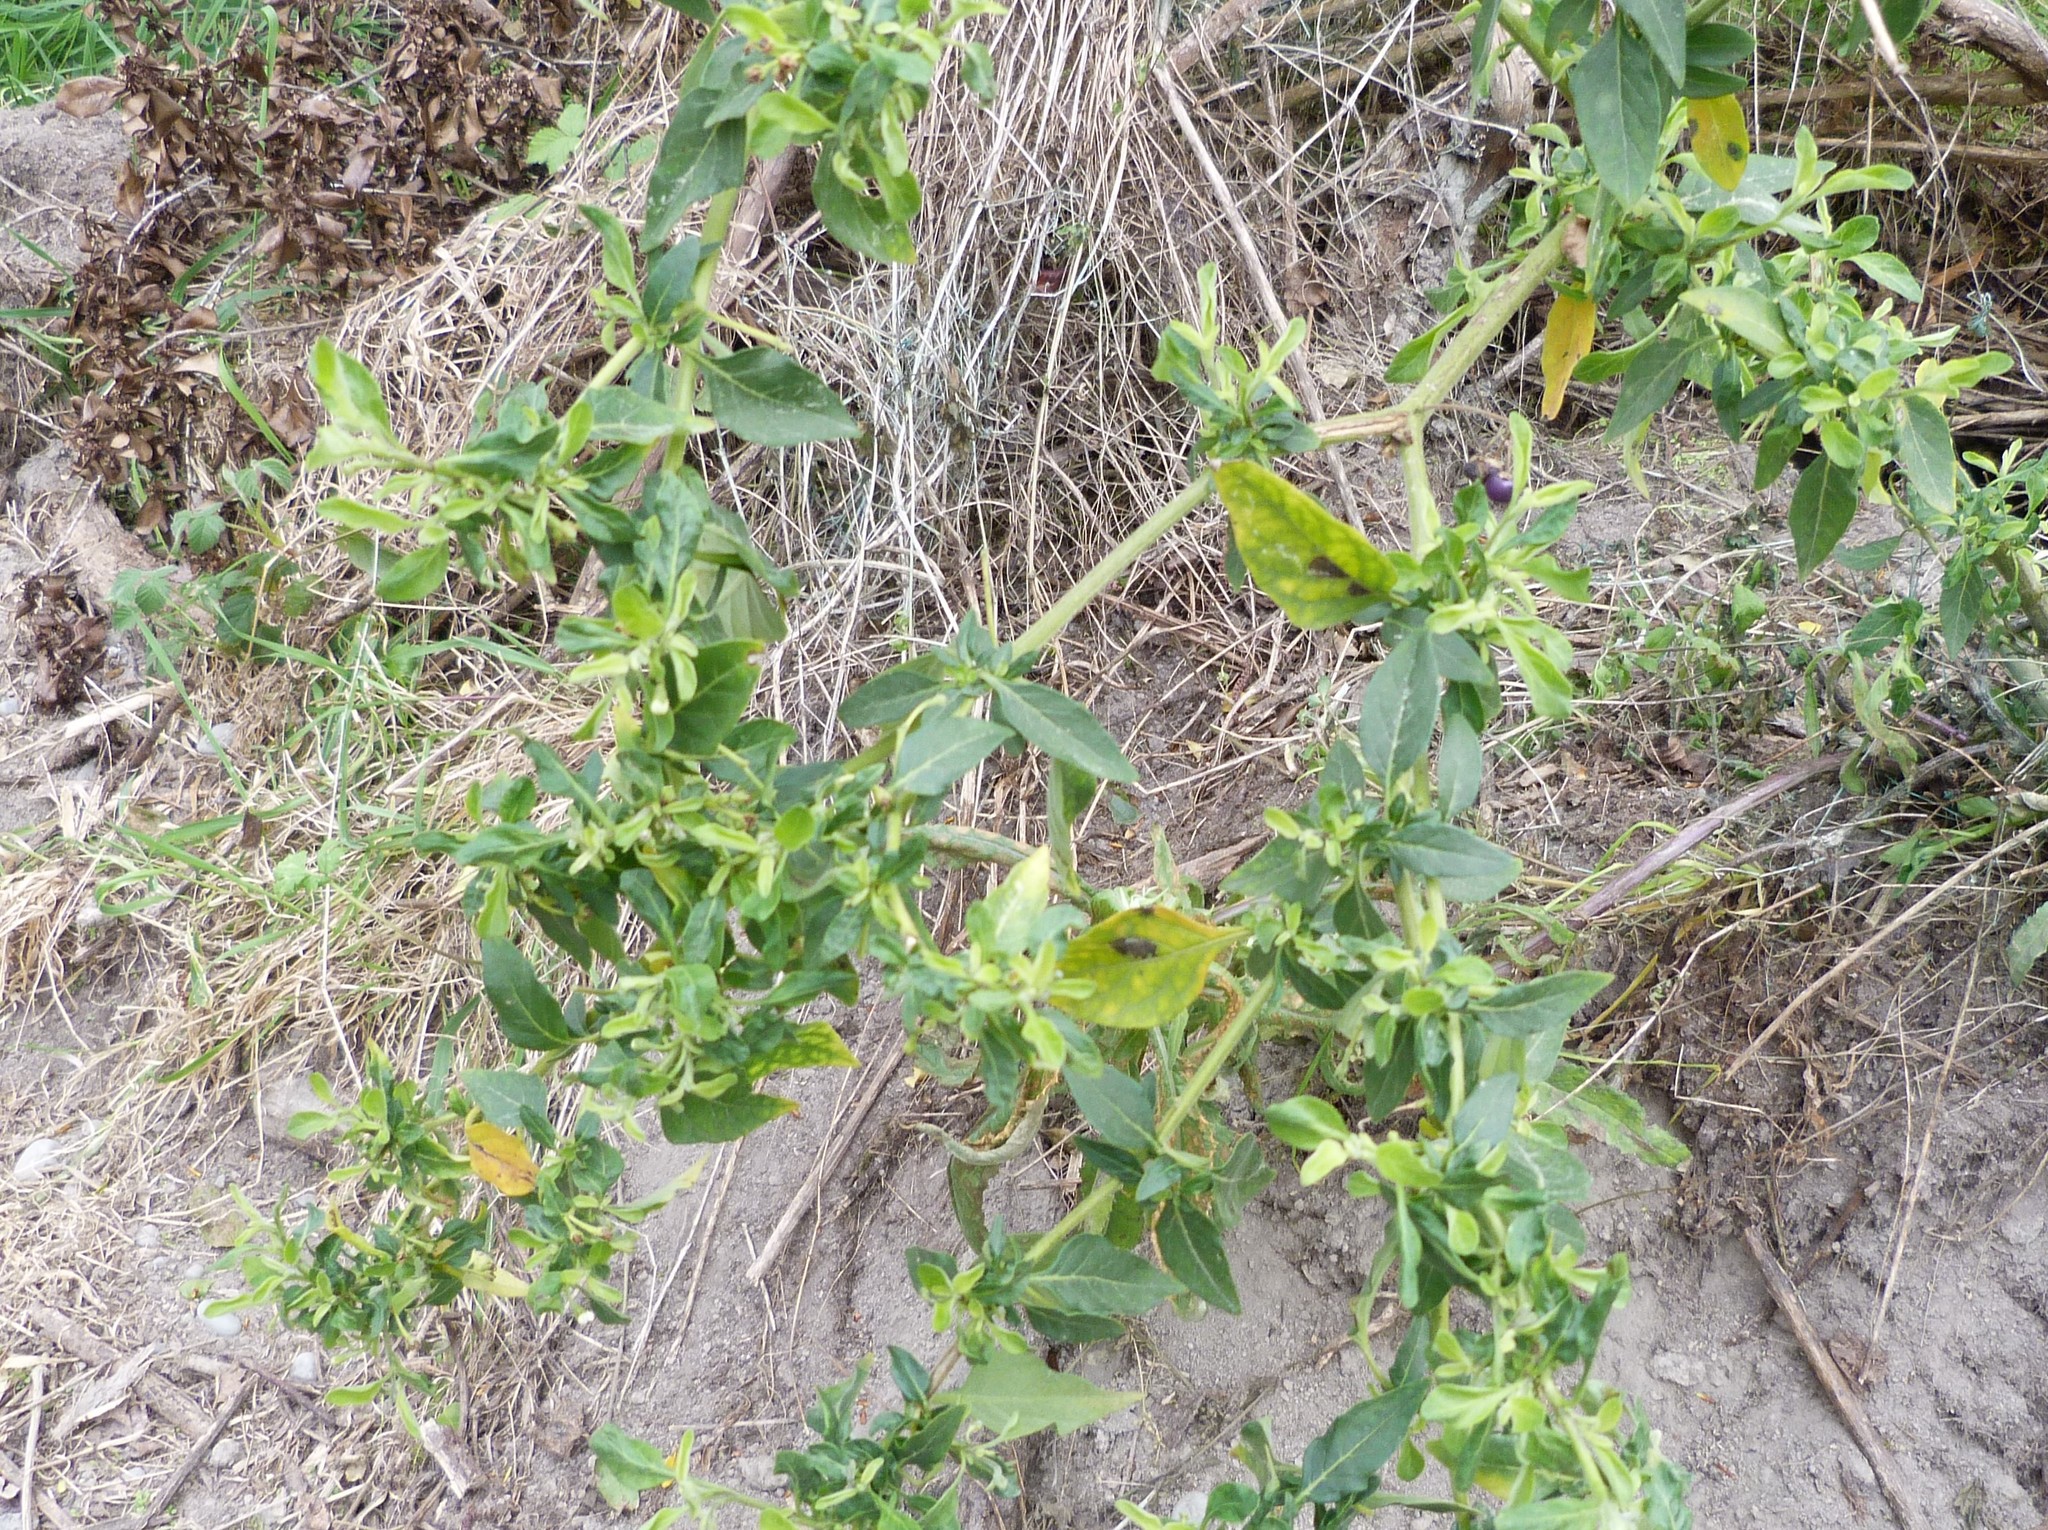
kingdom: Plantae
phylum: Tracheophyta
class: Magnoliopsida
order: Solanales
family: Solanaceae
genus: Solanum
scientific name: Solanum chenopodioides
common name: Tall nightshade
